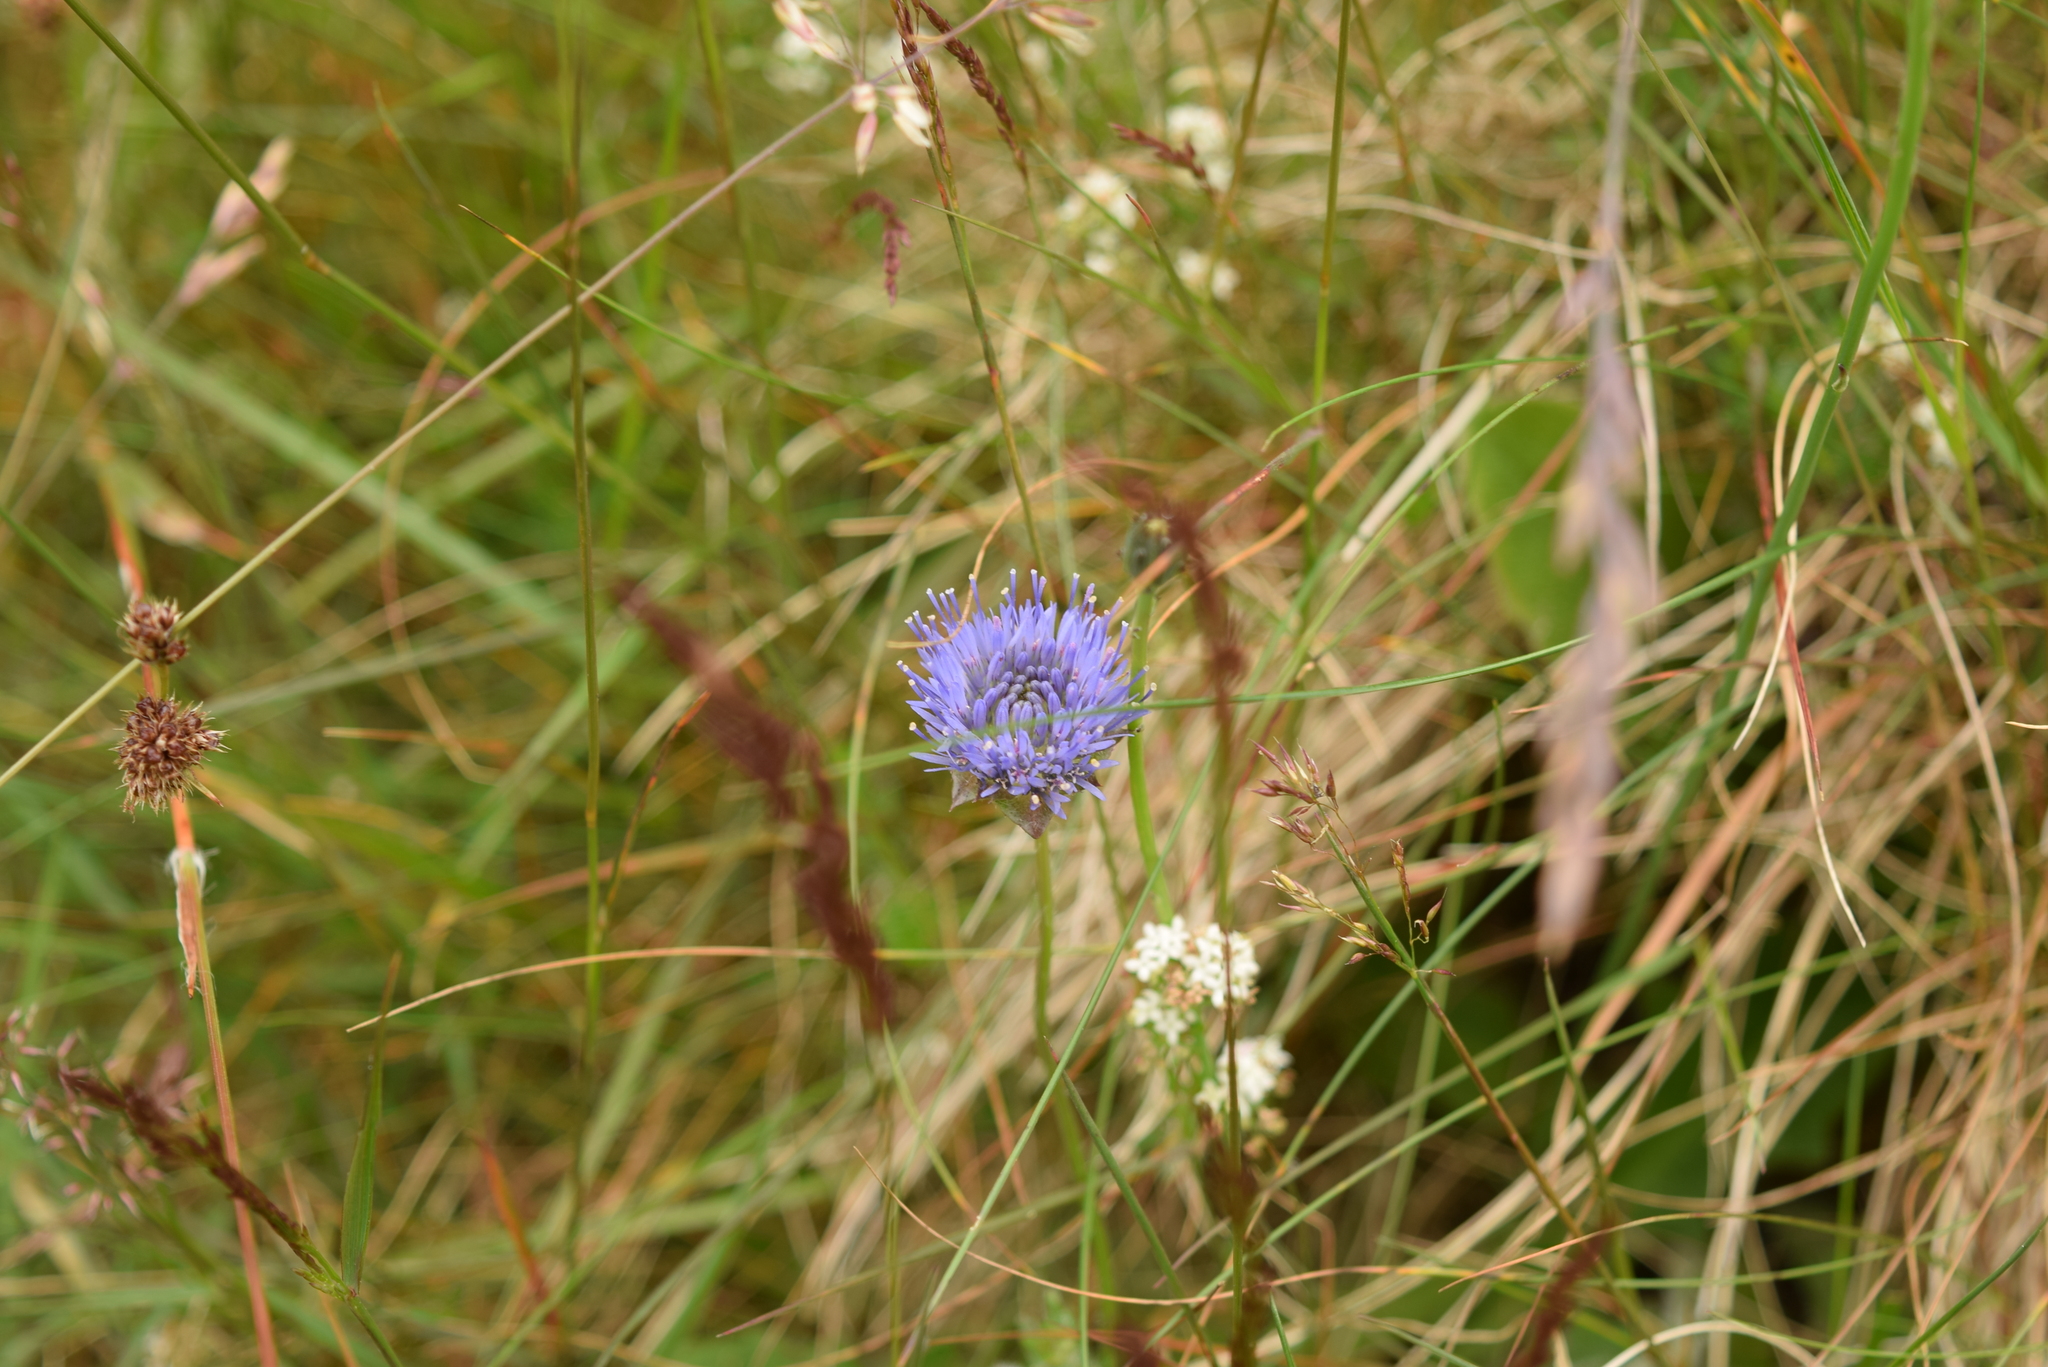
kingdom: Plantae
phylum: Tracheophyta
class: Magnoliopsida
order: Asterales
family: Campanulaceae
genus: Jasione
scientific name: Jasione montana
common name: Sheep's-bit
